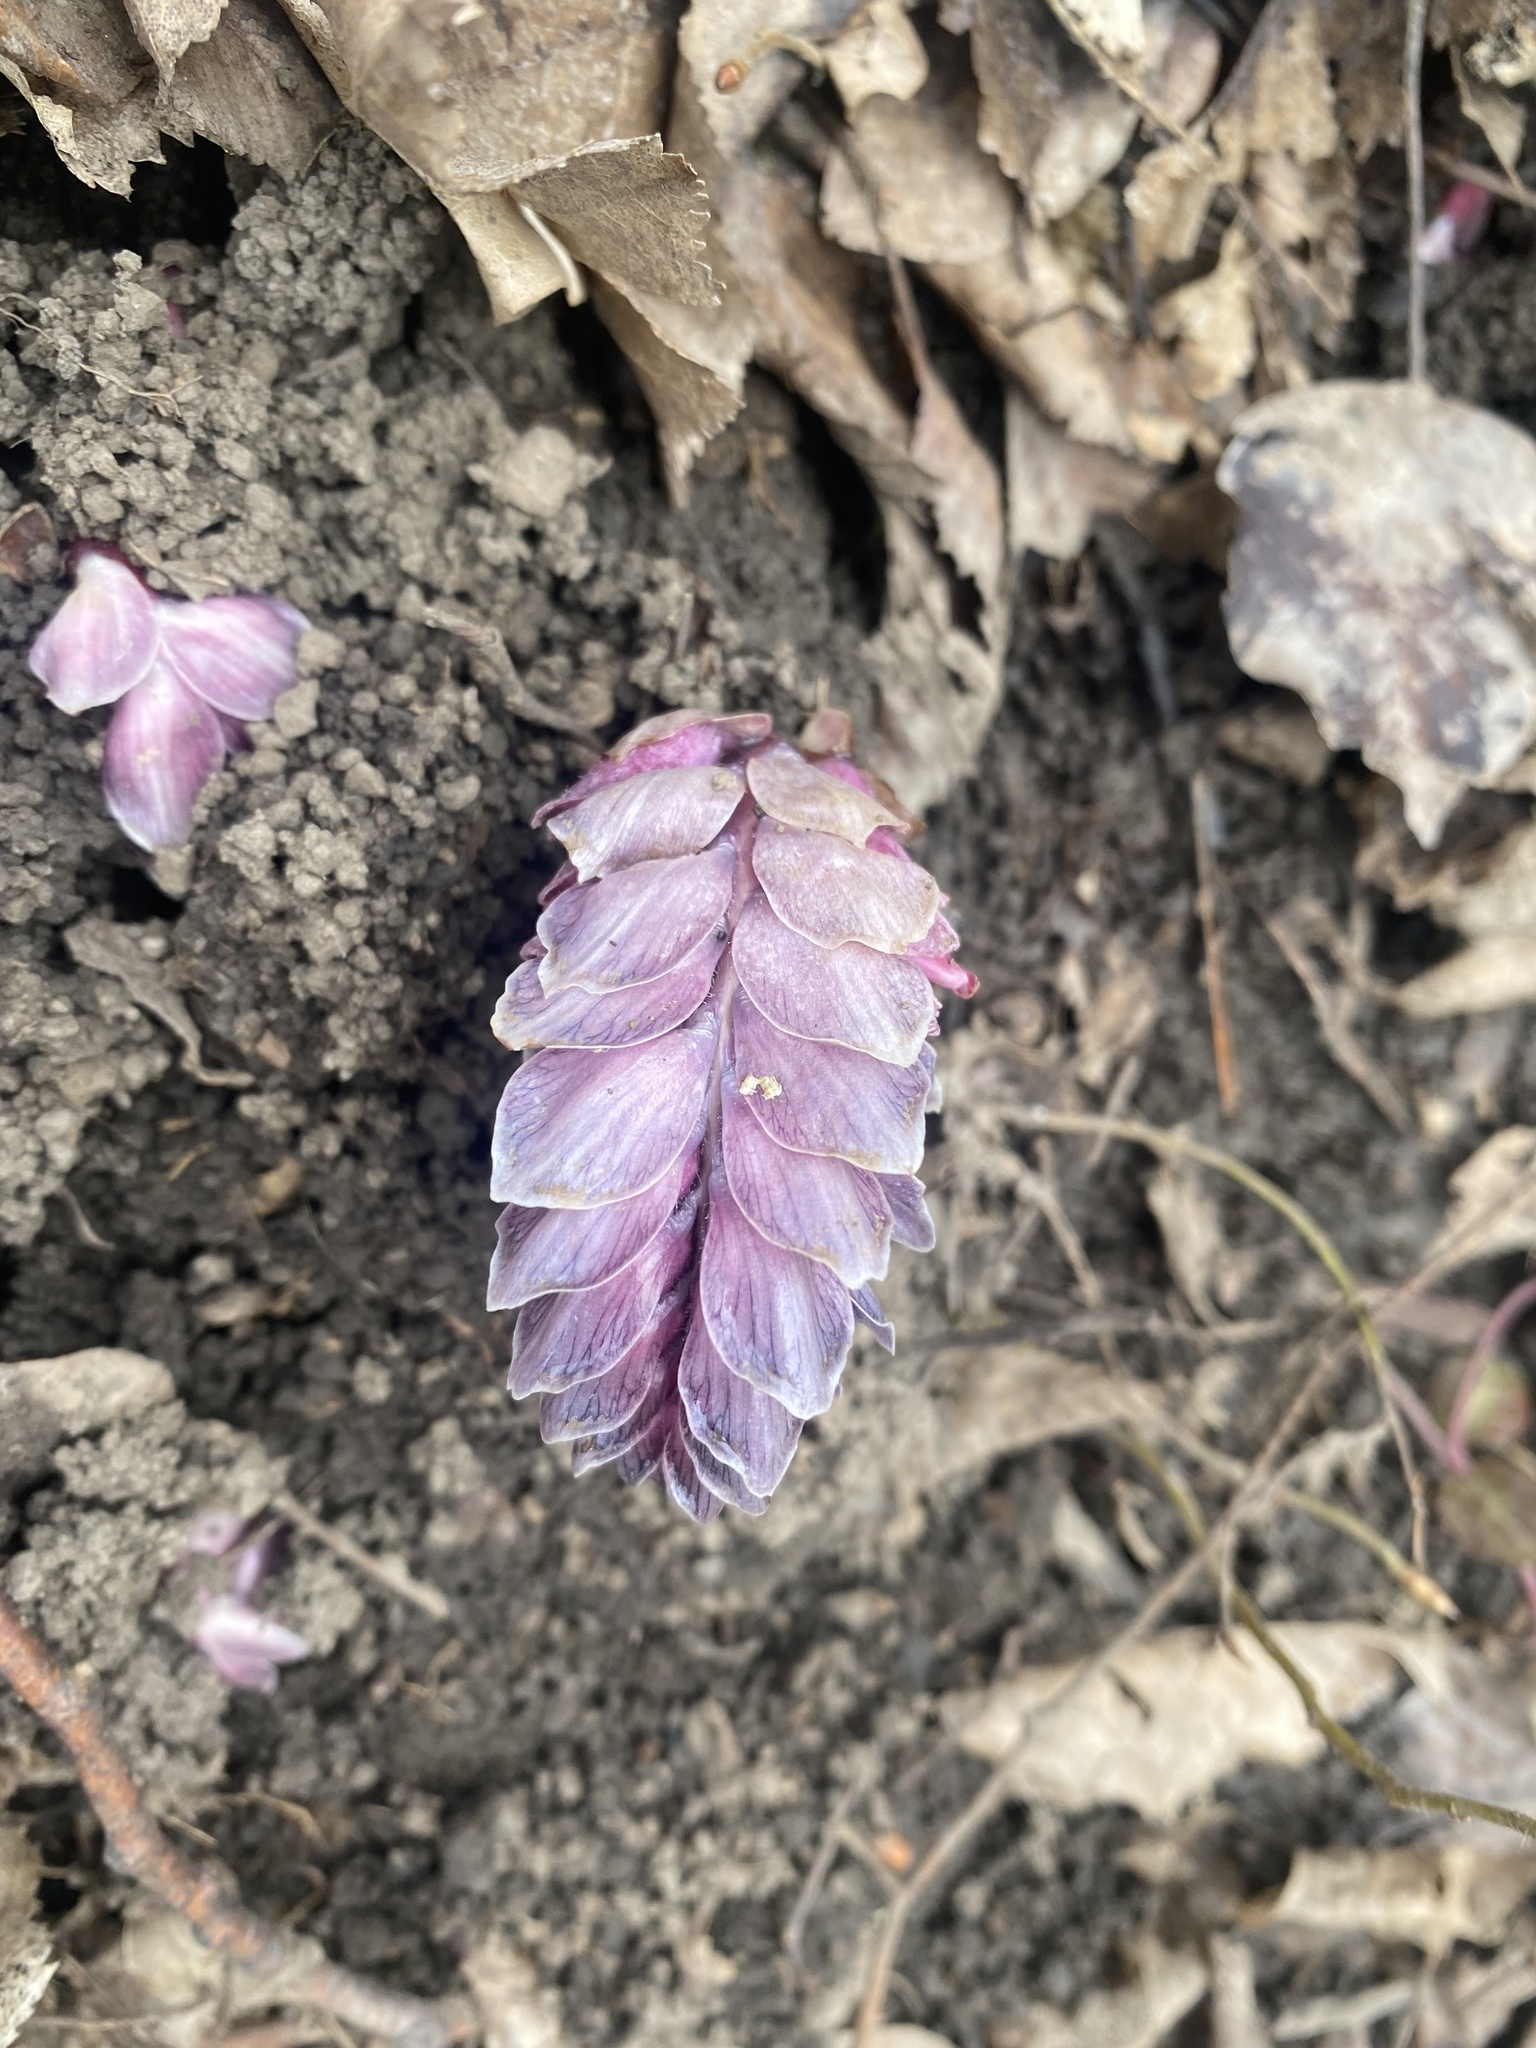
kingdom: Plantae
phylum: Tracheophyta
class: Magnoliopsida
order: Lamiales
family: Orobanchaceae
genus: Lathraea
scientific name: Lathraea squamaria
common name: Toothwort
